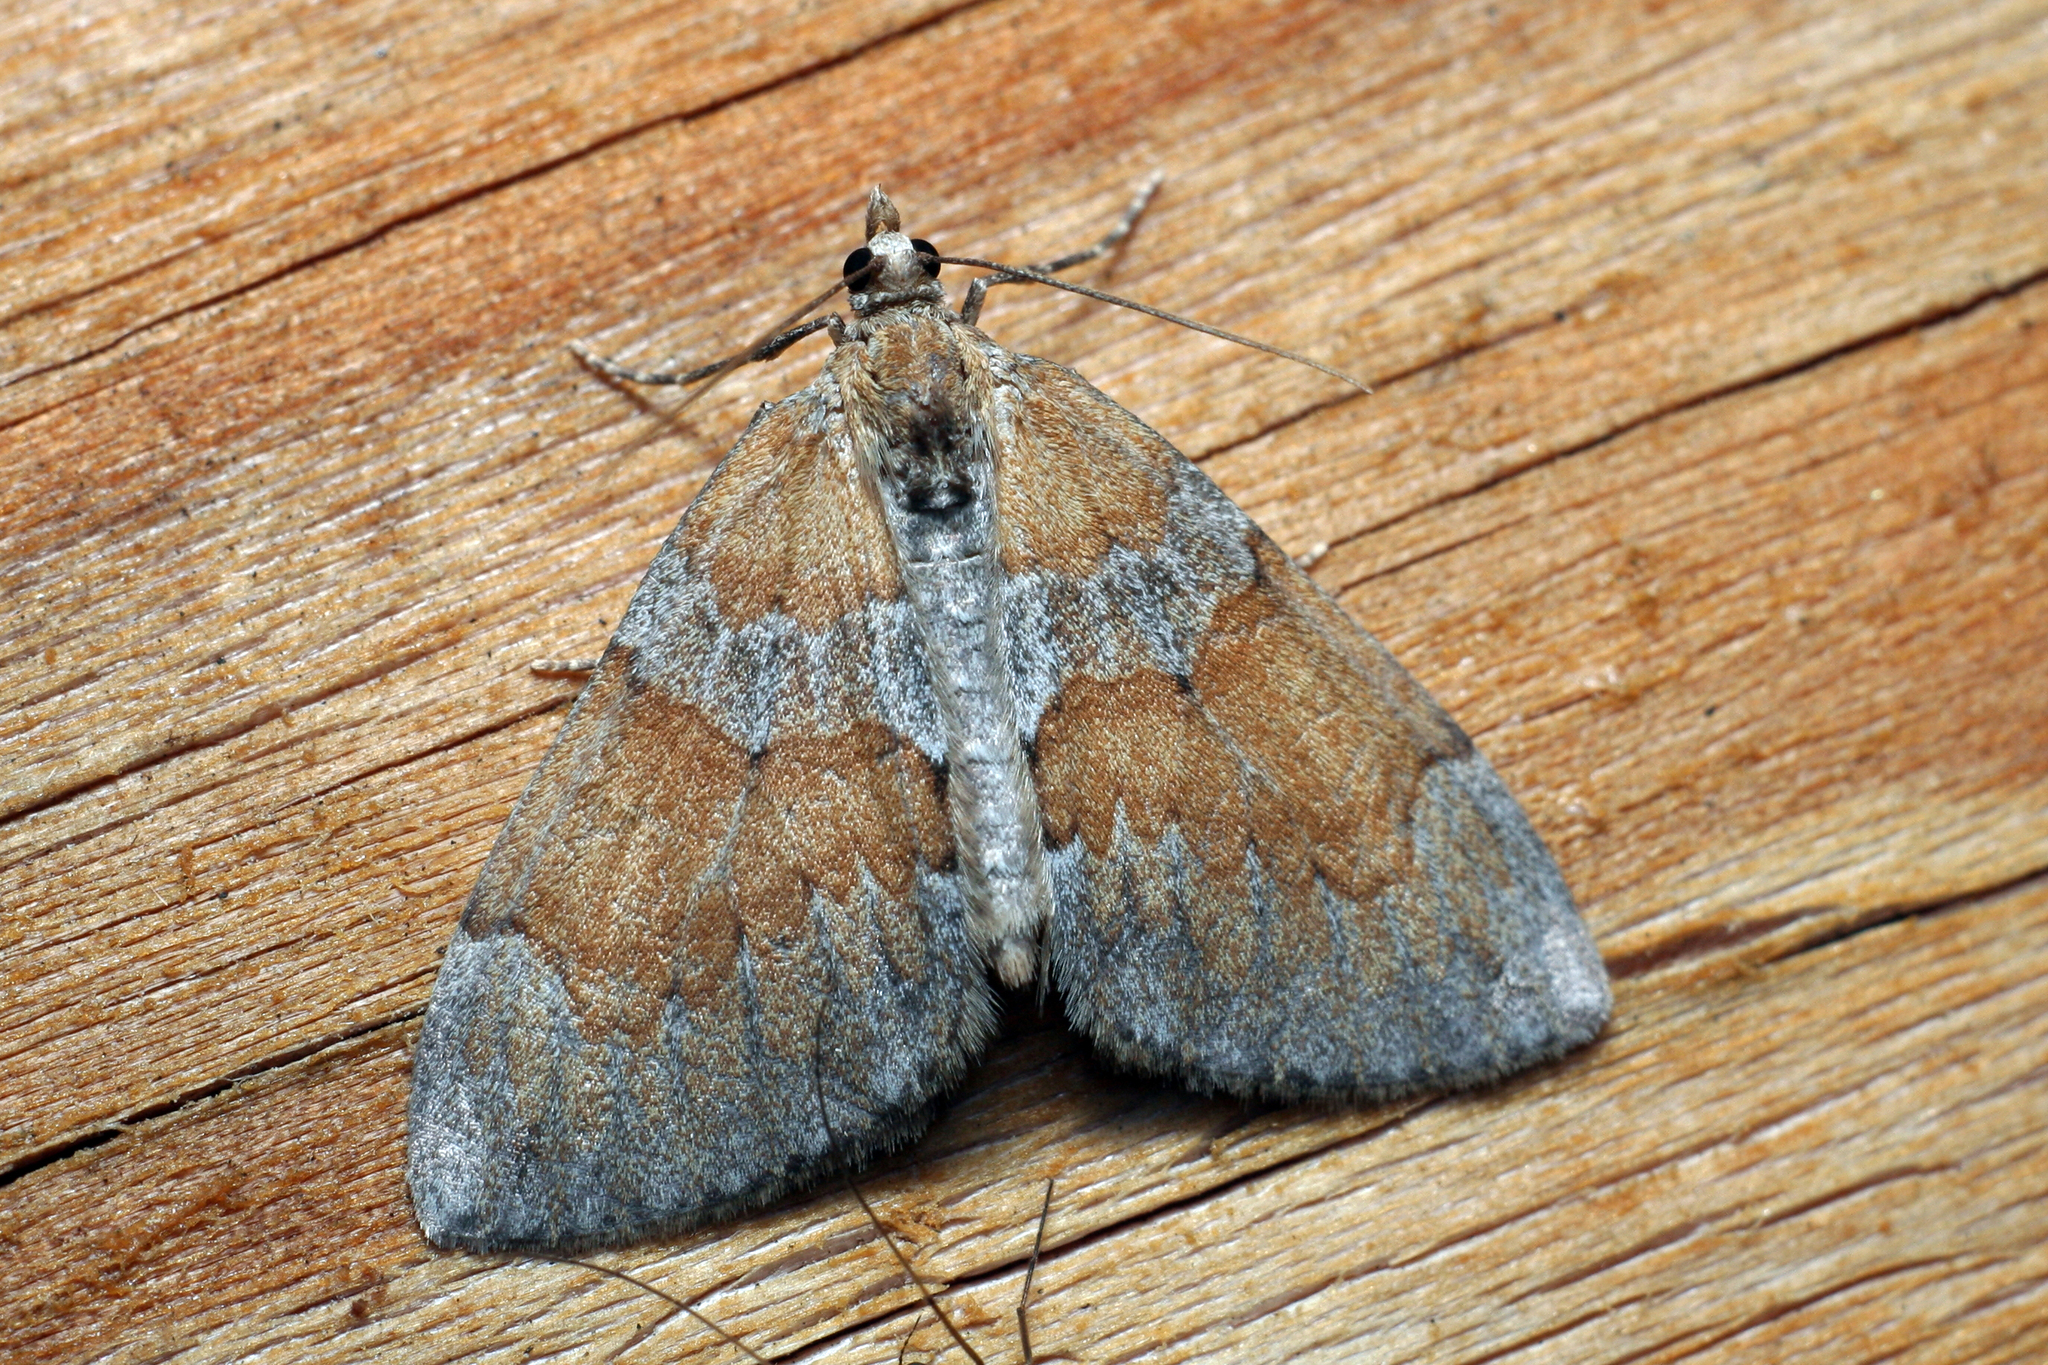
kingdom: Animalia
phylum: Arthropoda
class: Insecta
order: Lepidoptera
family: Geometridae
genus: Thera
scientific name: Thera obeliscata
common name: Grey pine carpet
